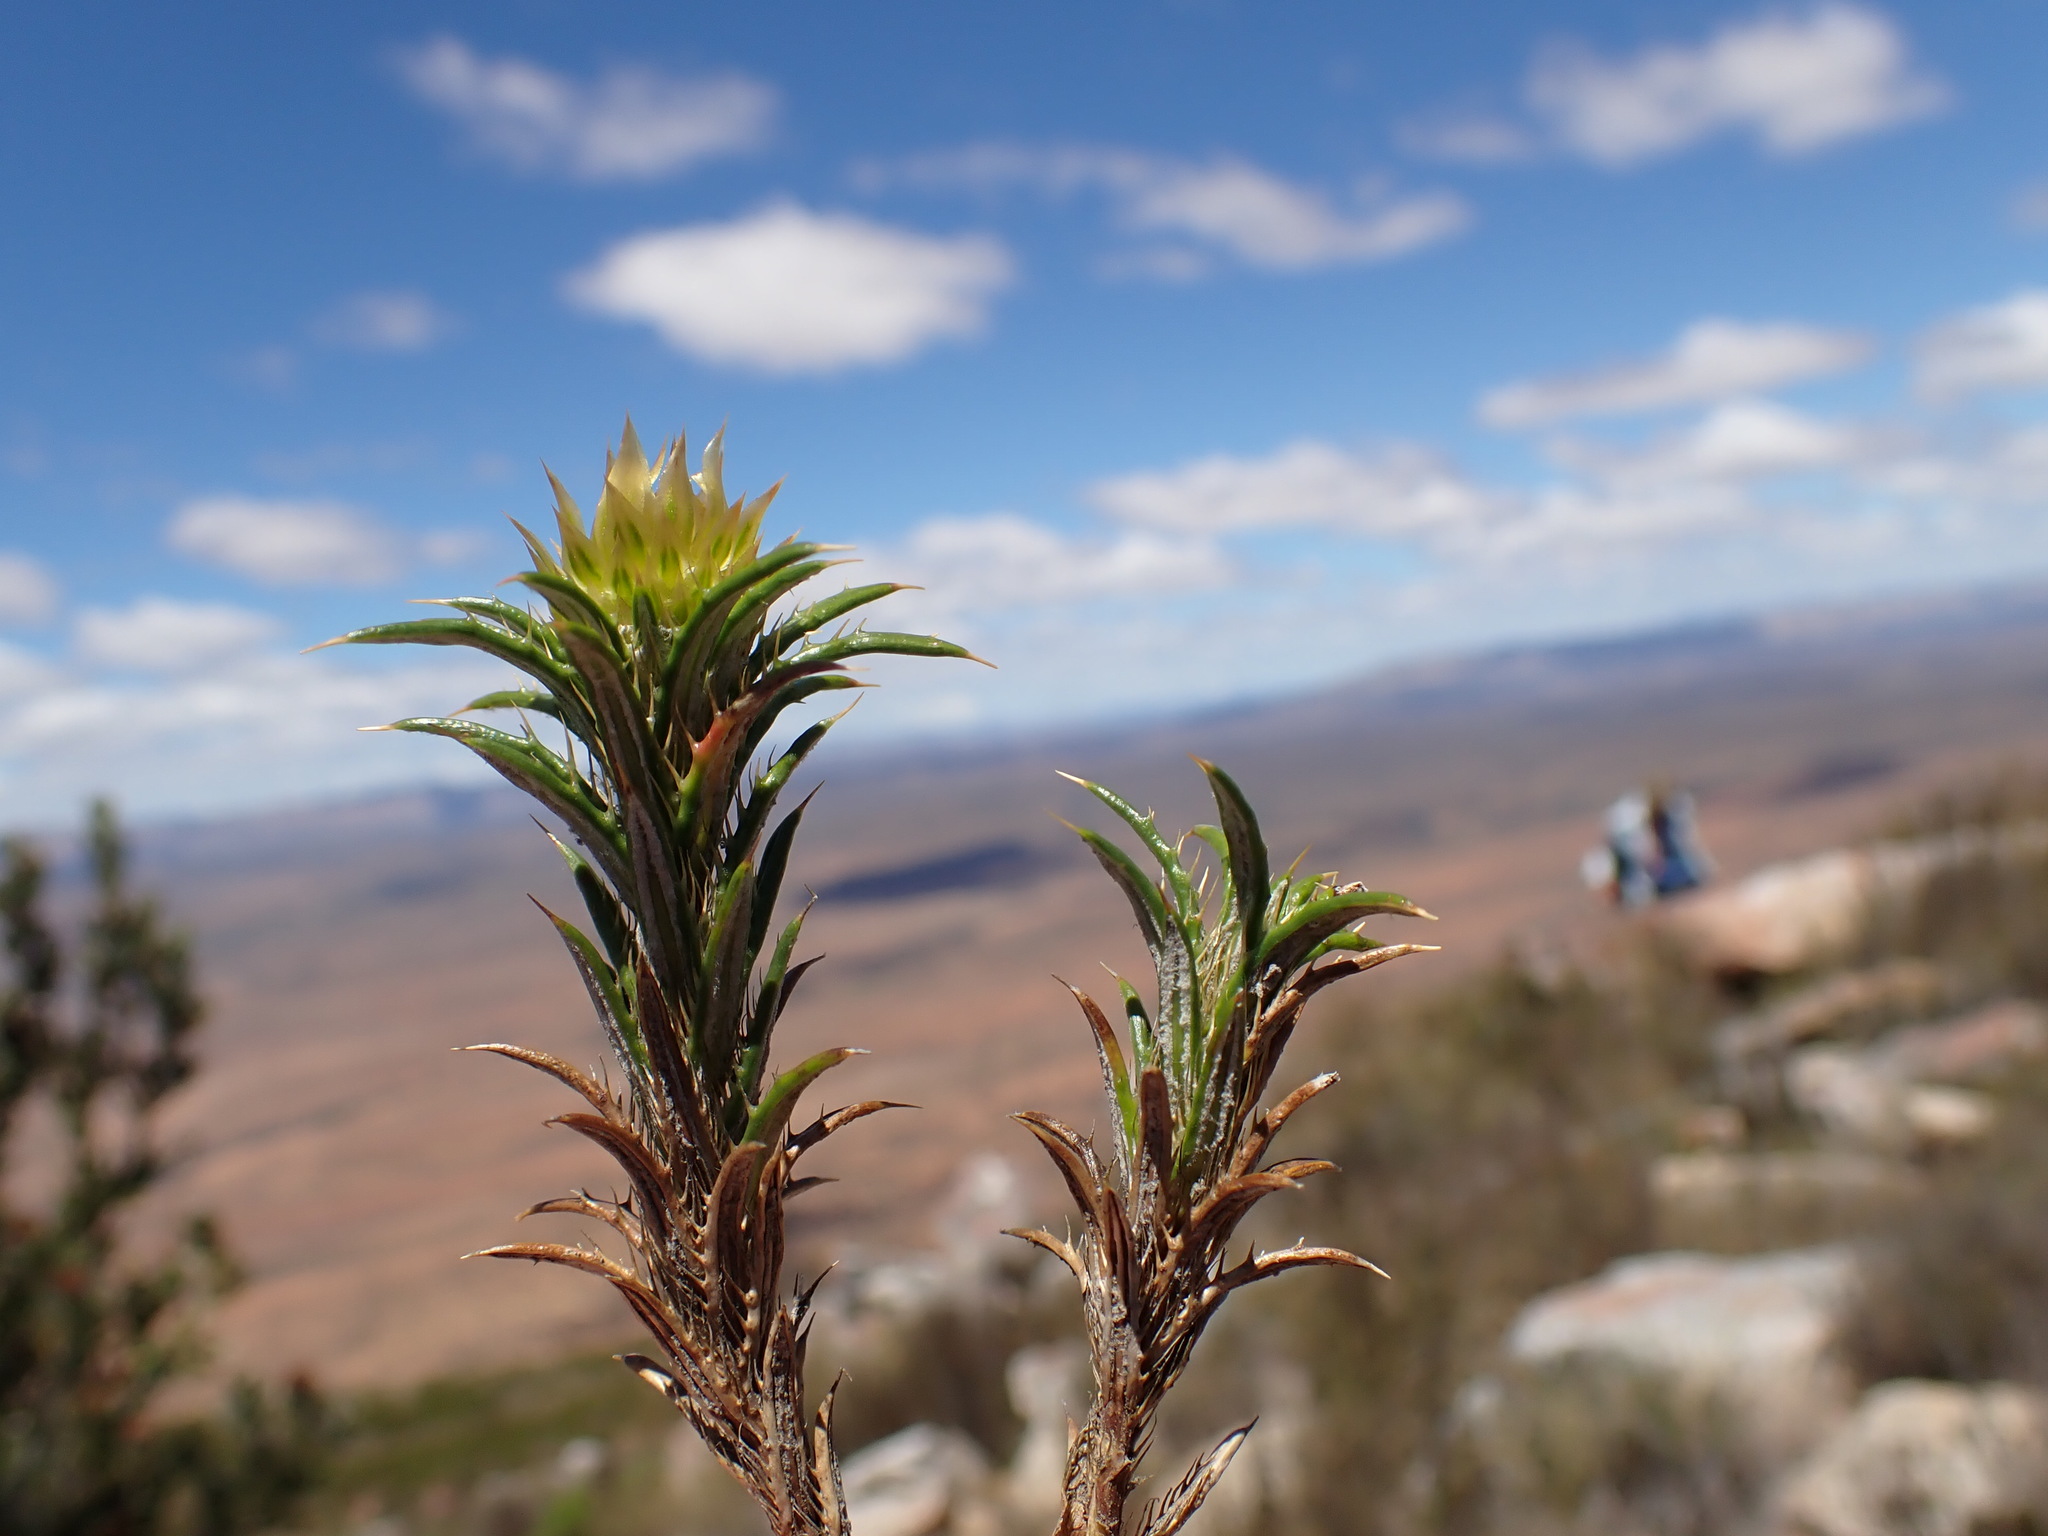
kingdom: Plantae
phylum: Tracheophyta
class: Magnoliopsida
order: Asterales
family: Asteraceae
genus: Cullumia
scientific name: Cullumia bisulca
